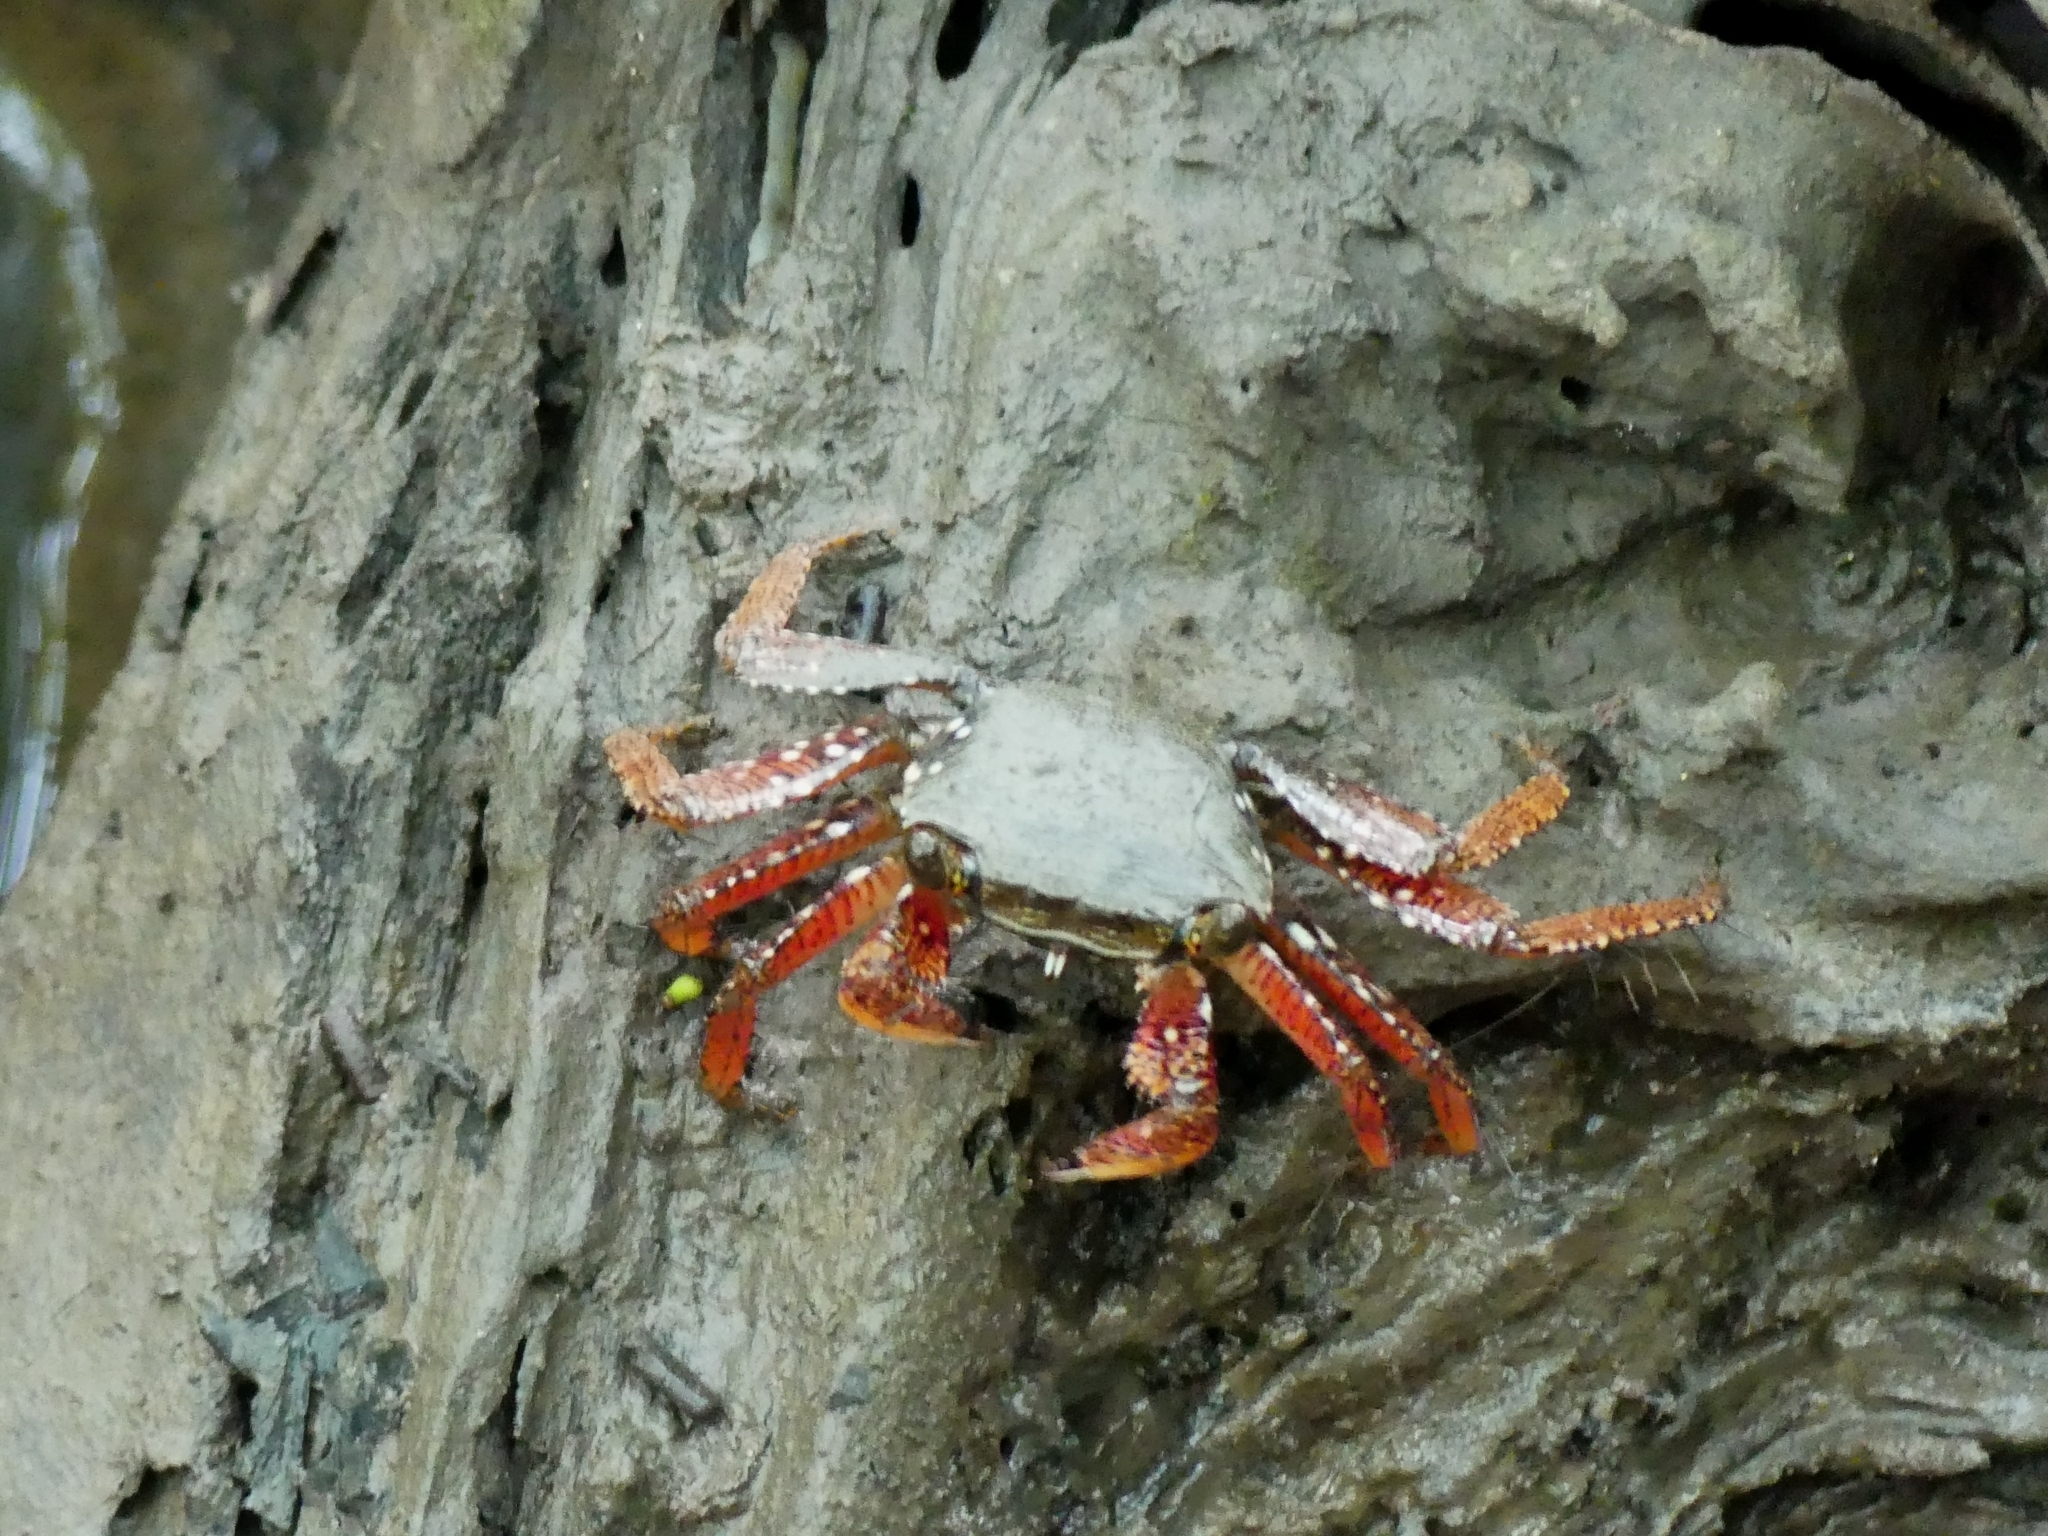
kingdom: Animalia
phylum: Arthropoda
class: Malacostraca
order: Decapoda
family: Grapsidae
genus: Goniopsis
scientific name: Goniopsis cruentata
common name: Mangrove crab
